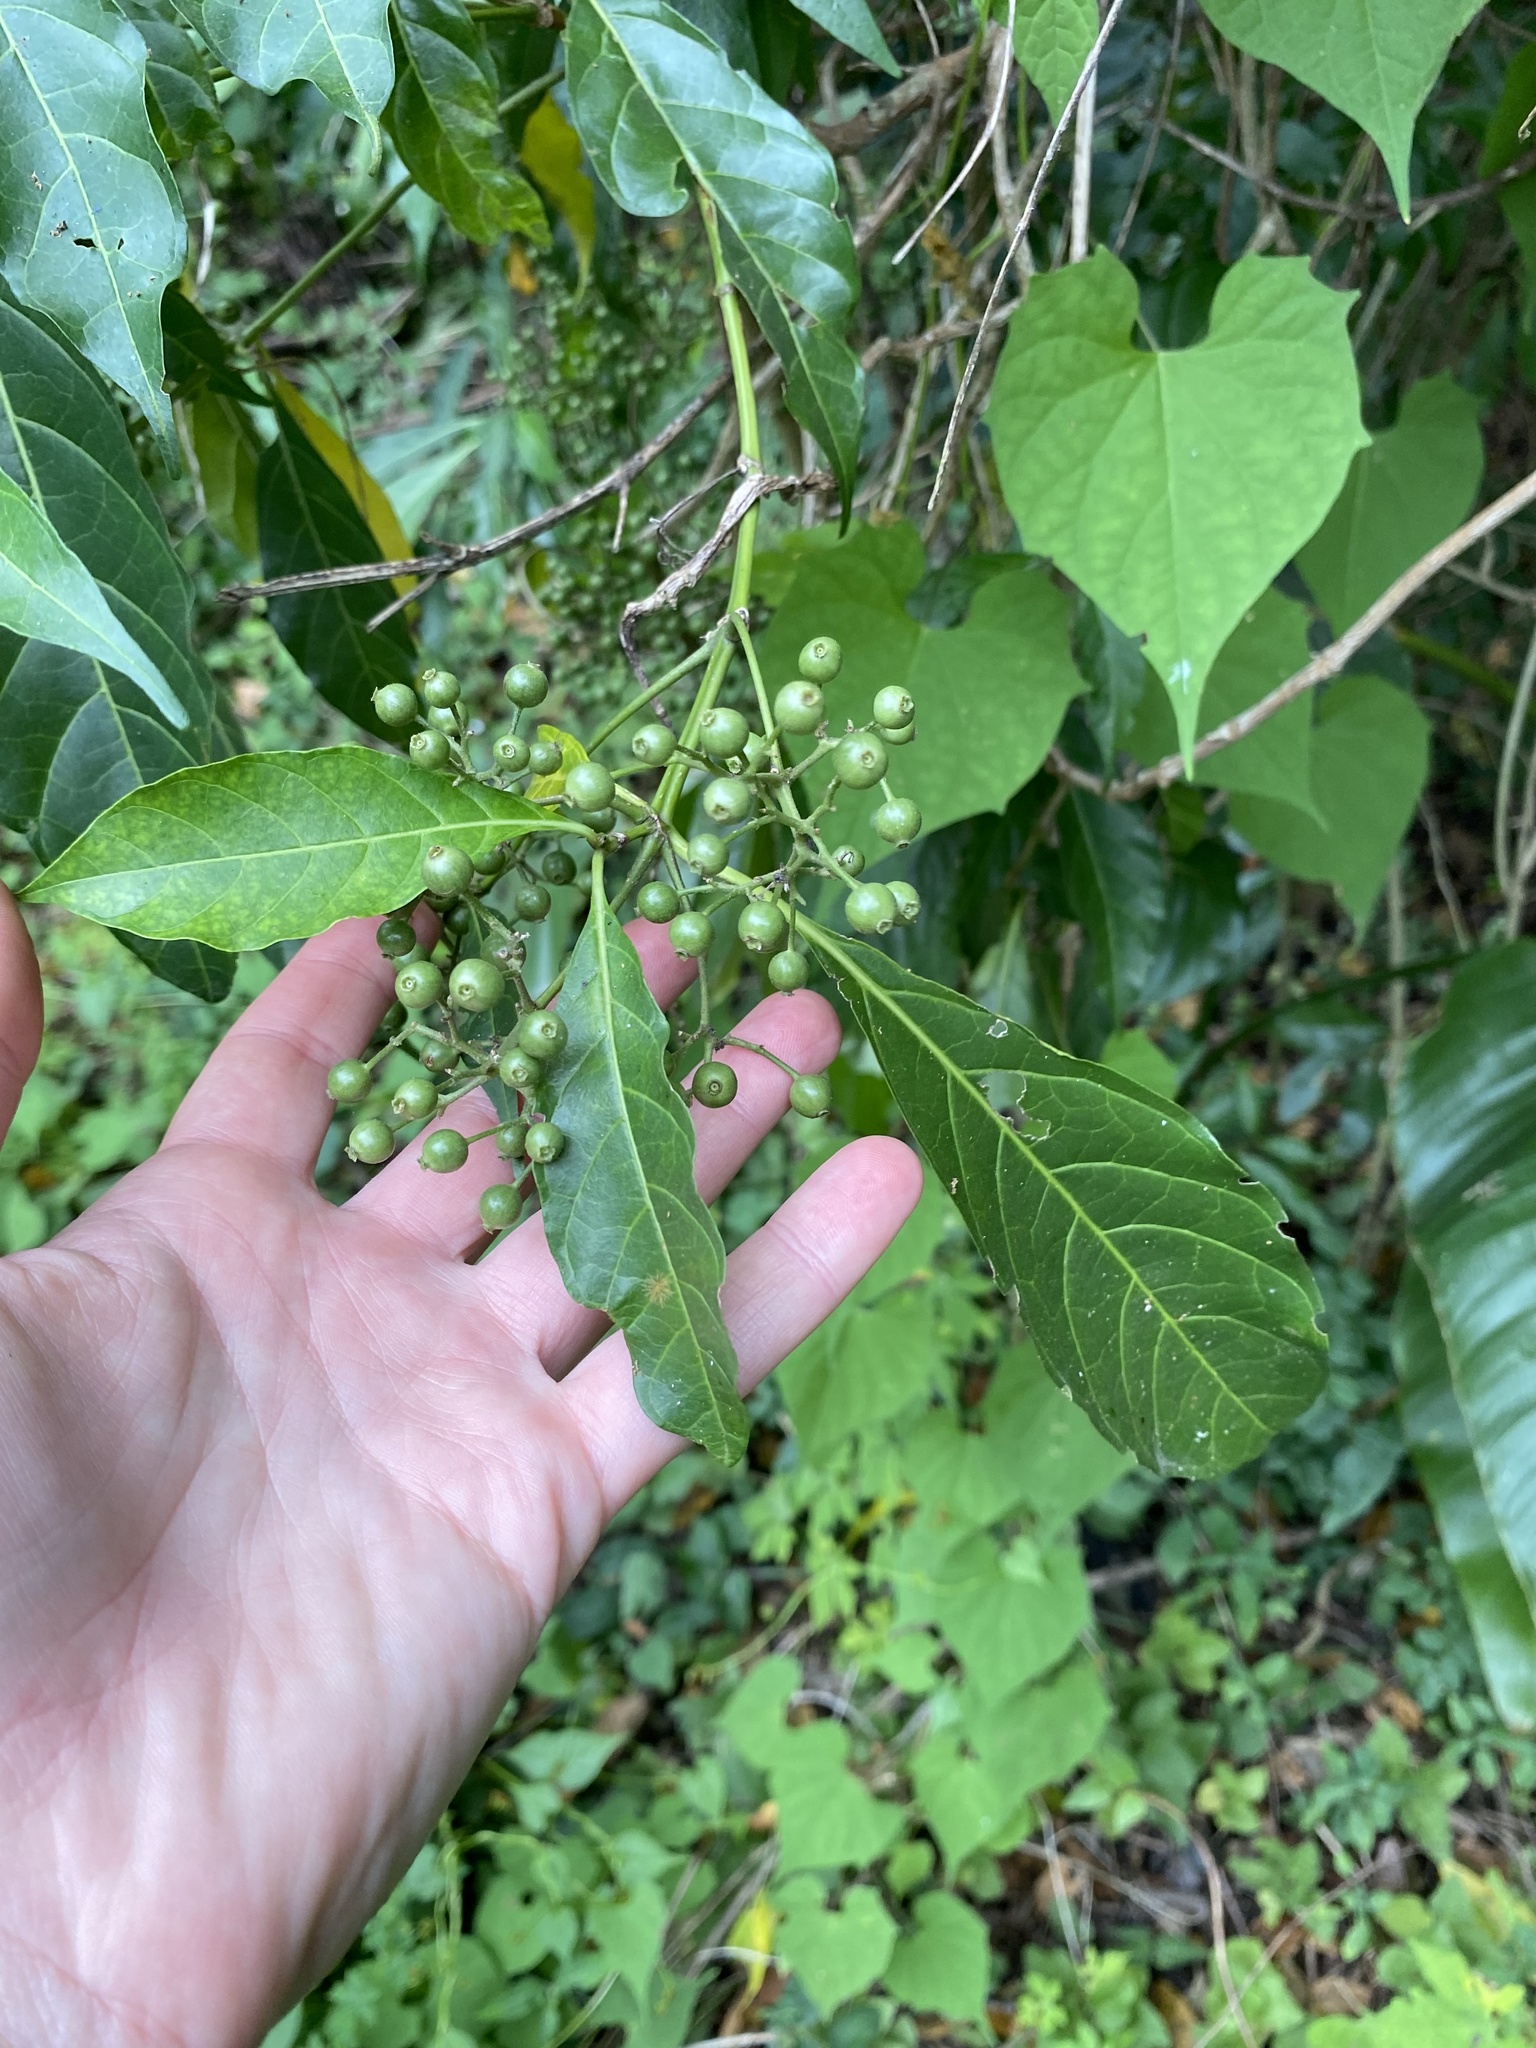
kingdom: Plantae
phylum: Tracheophyta
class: Magnoliopsida
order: Gentianales
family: Rubiaceae
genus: Tarenna
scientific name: Tarenna pavettoides
